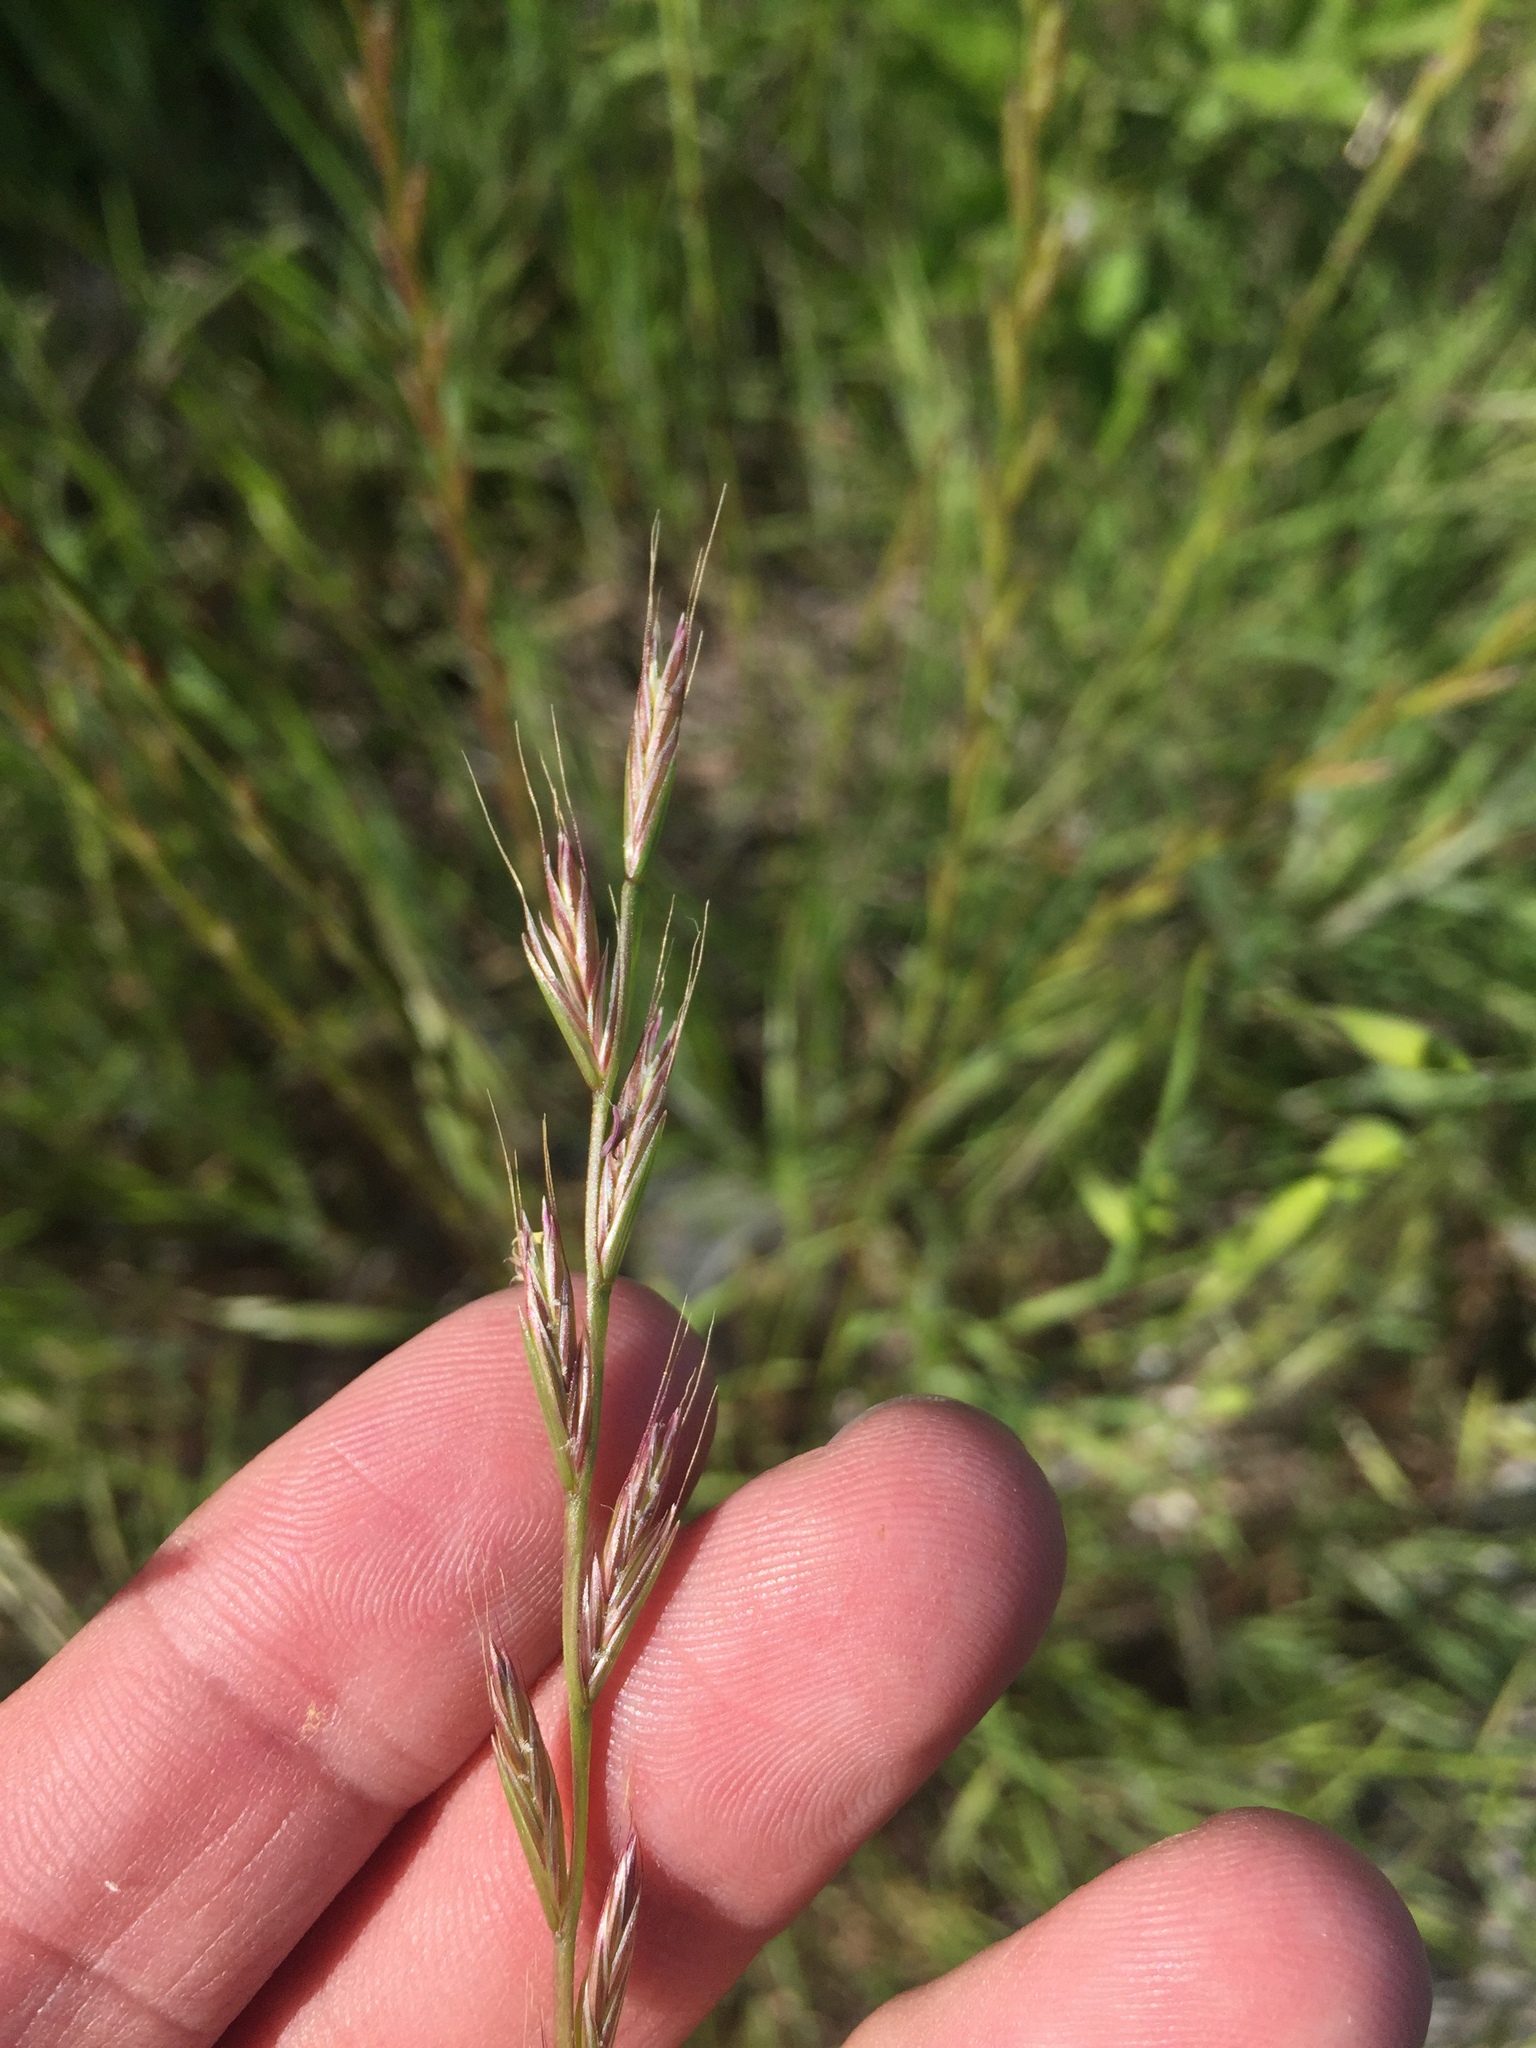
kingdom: Plantae
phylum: Tracheophyta
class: Liliopsida
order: Poales
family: Poaceae
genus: Lolium
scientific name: Lolium perenne
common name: Perennial ryegrass
